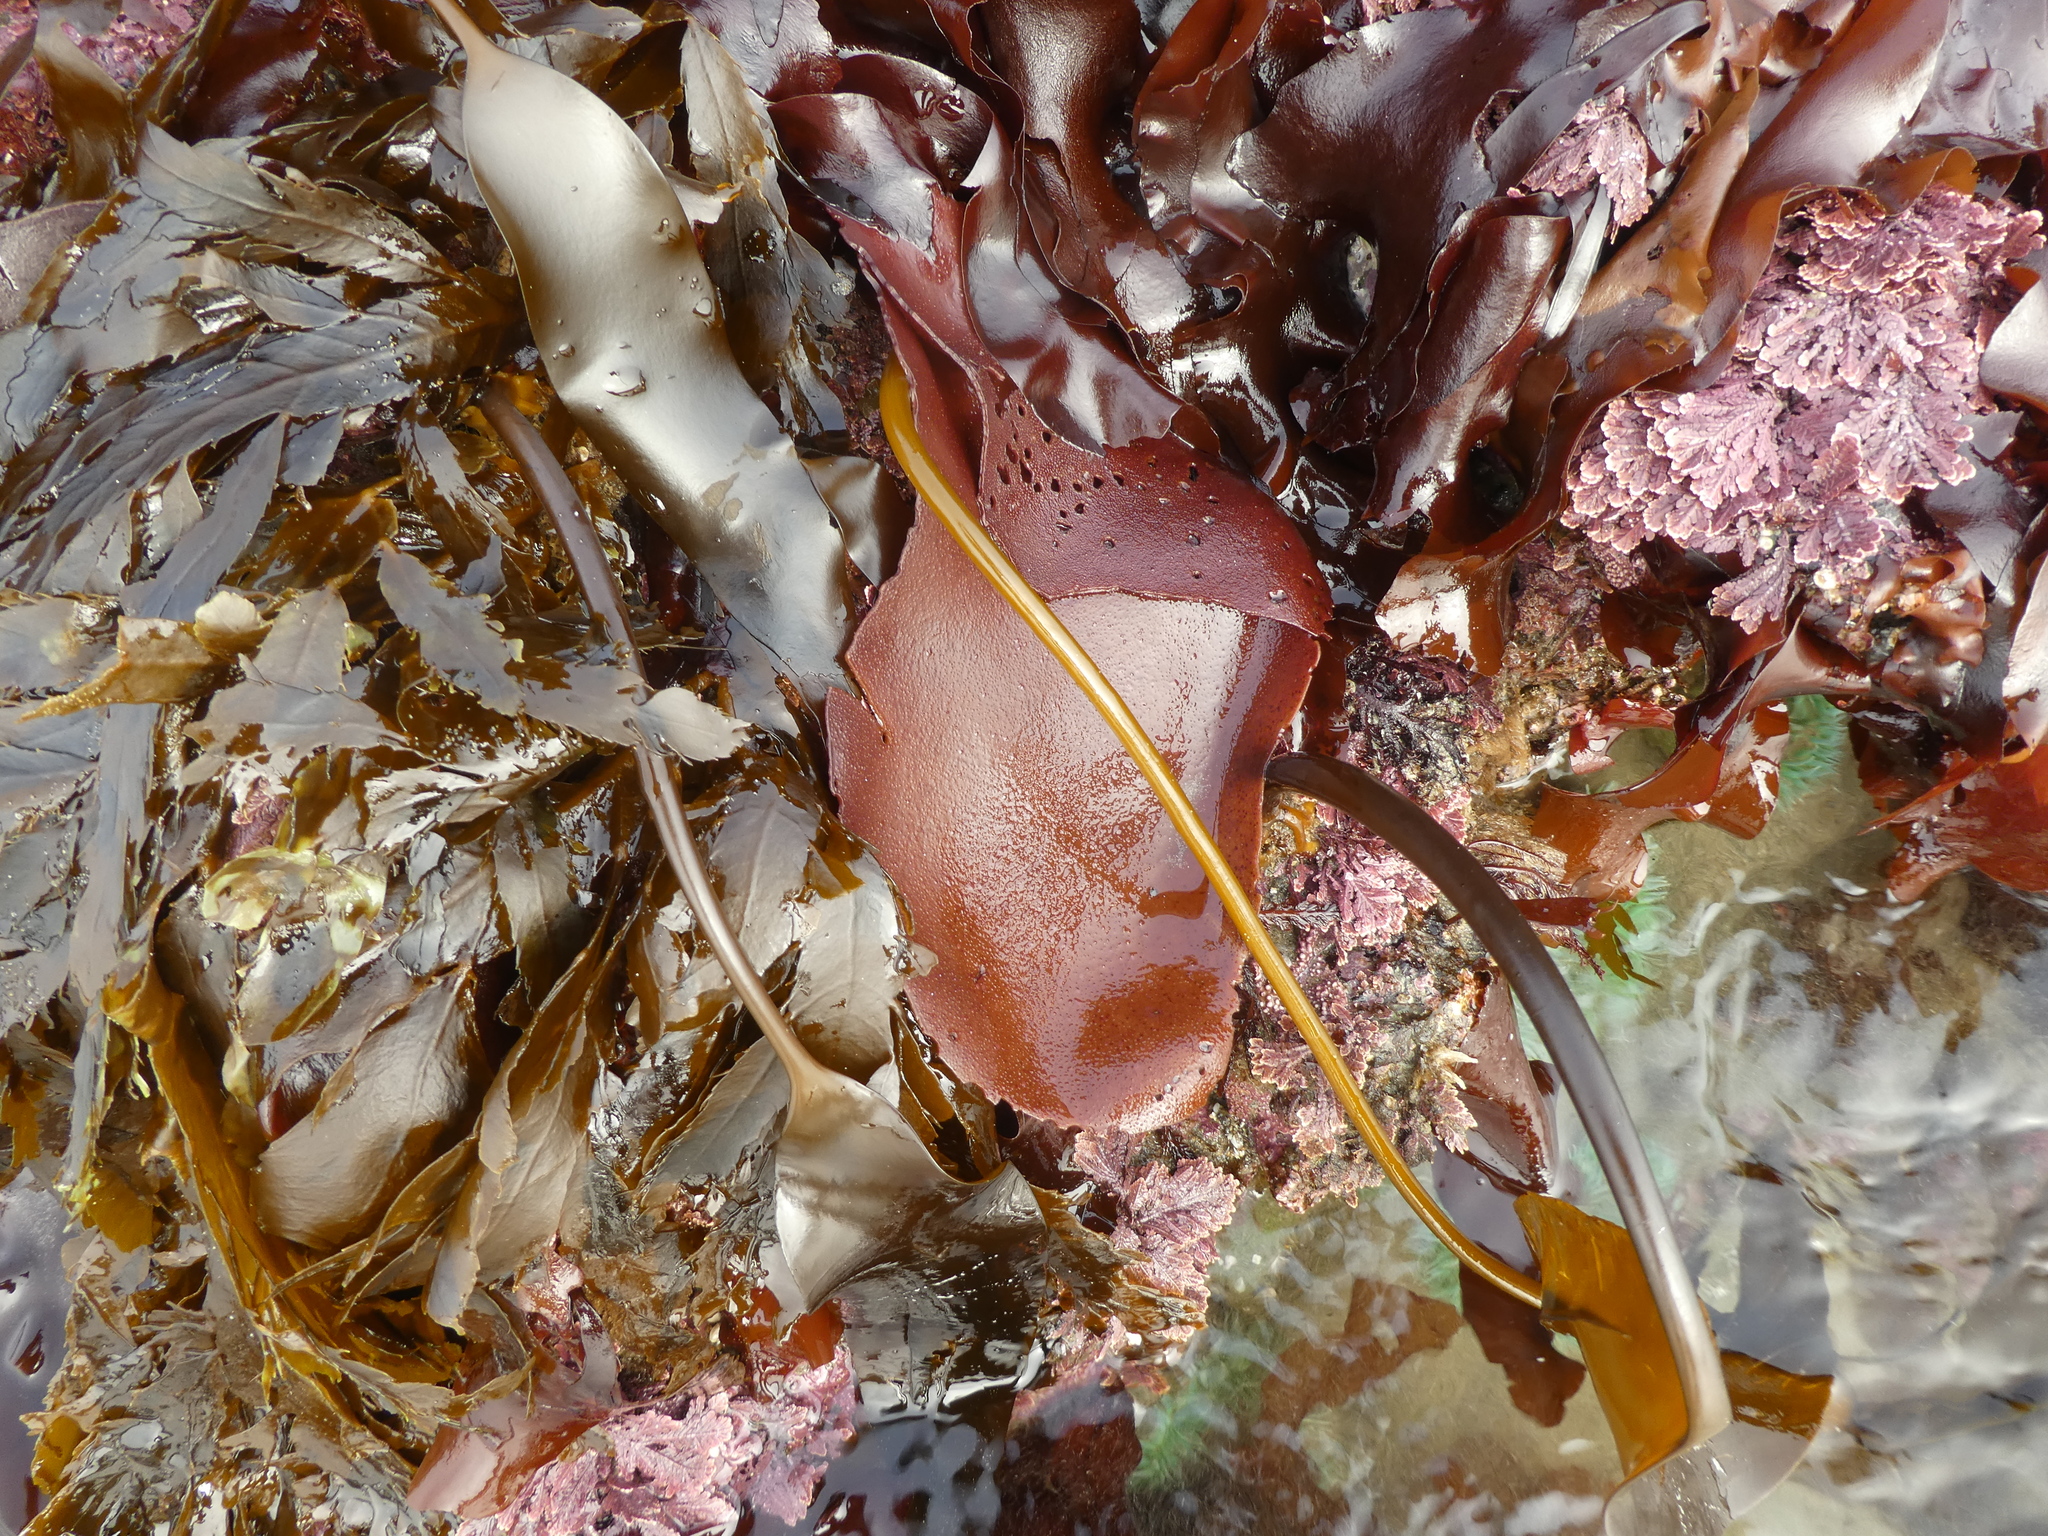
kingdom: Plantae
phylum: Rhodophyta
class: Florideophyceae
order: Gigartinales
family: Gigartinaceae
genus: Chondracanthus
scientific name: Chondracanthus exasperatus
